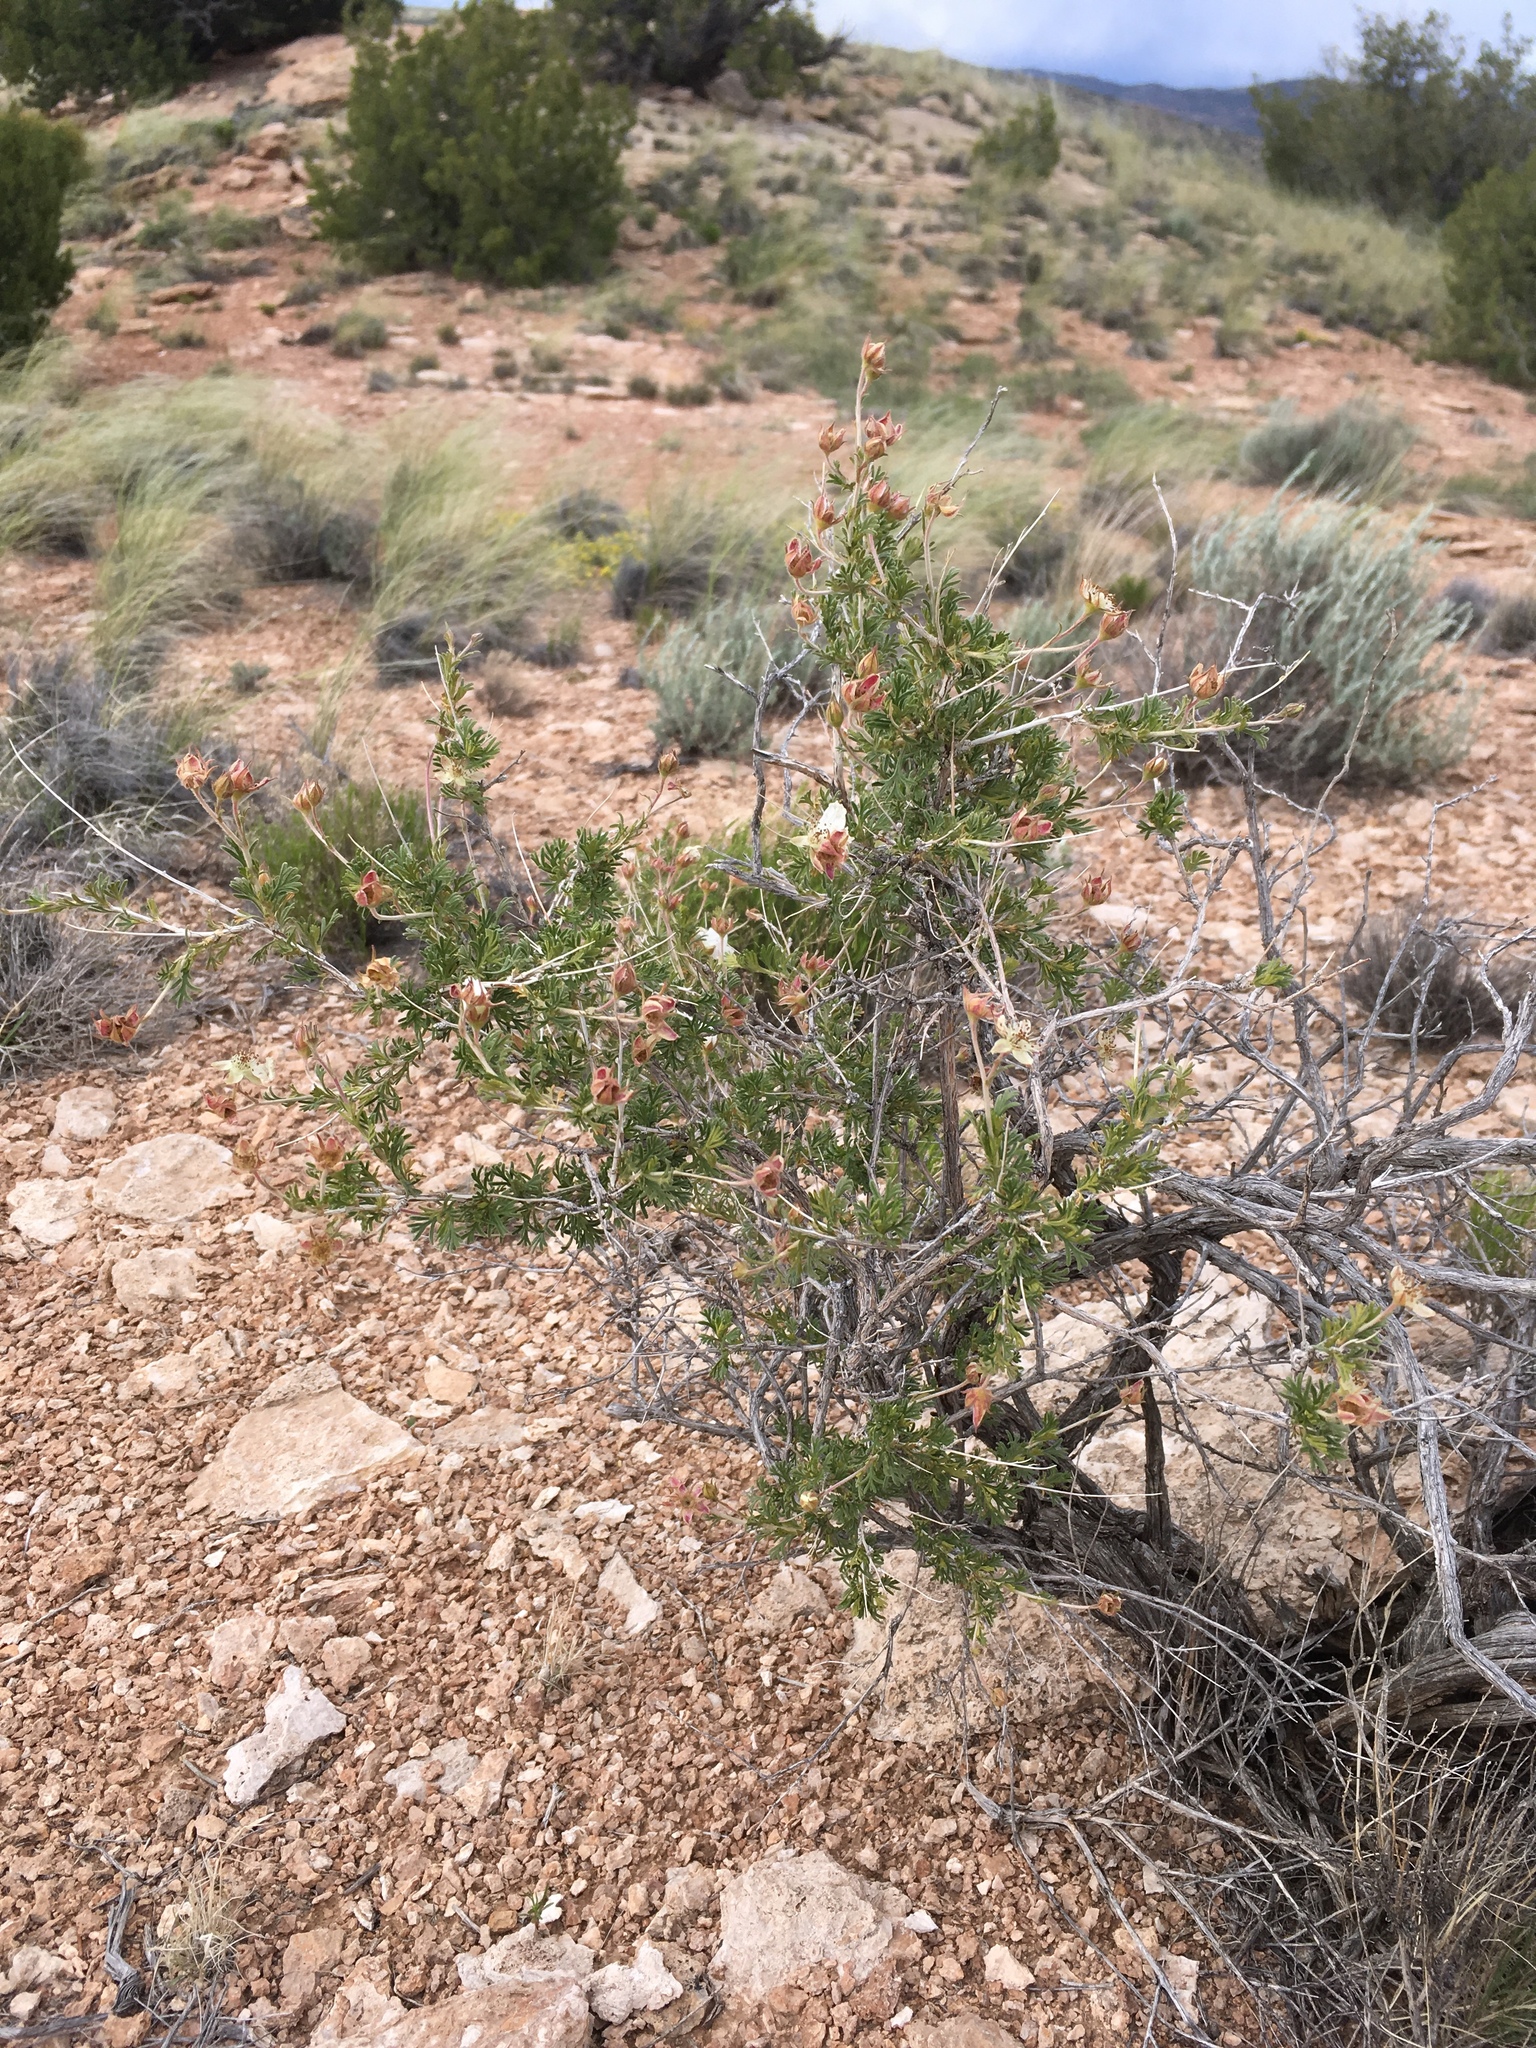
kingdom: Plantae
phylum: Tracheophyta
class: Magnoliopsida
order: Rosales
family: Rosaceae
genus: Fallugia
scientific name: Fallugia paradoxa
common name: Apache-plume
